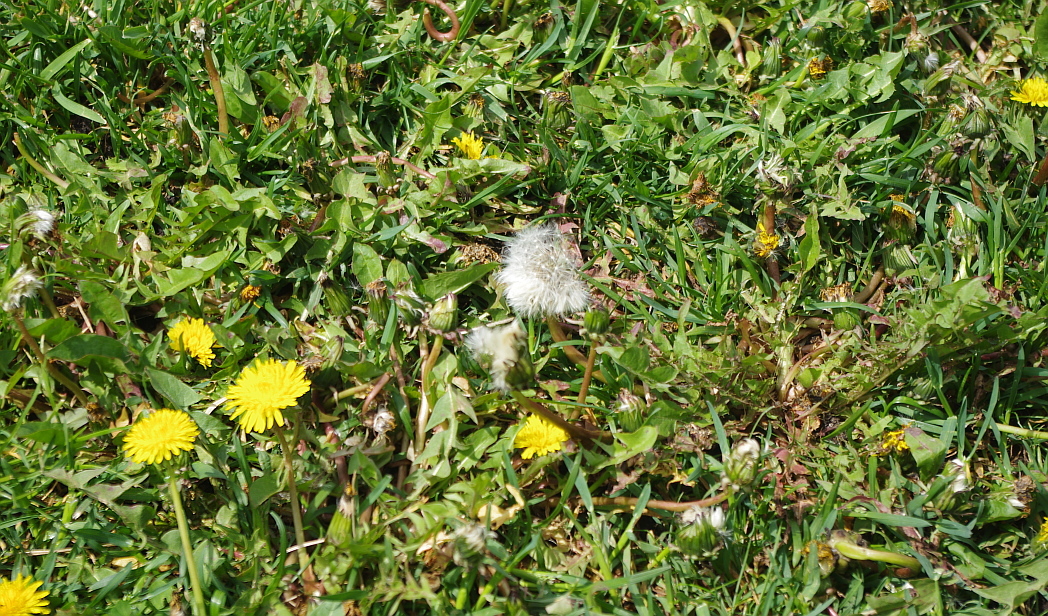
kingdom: Plantae
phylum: Tracheophyta
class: Magnoliopsida
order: Asterales
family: Asteraceae
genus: Taraxacum
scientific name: Taraxacum officinale
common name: Common dandelion
